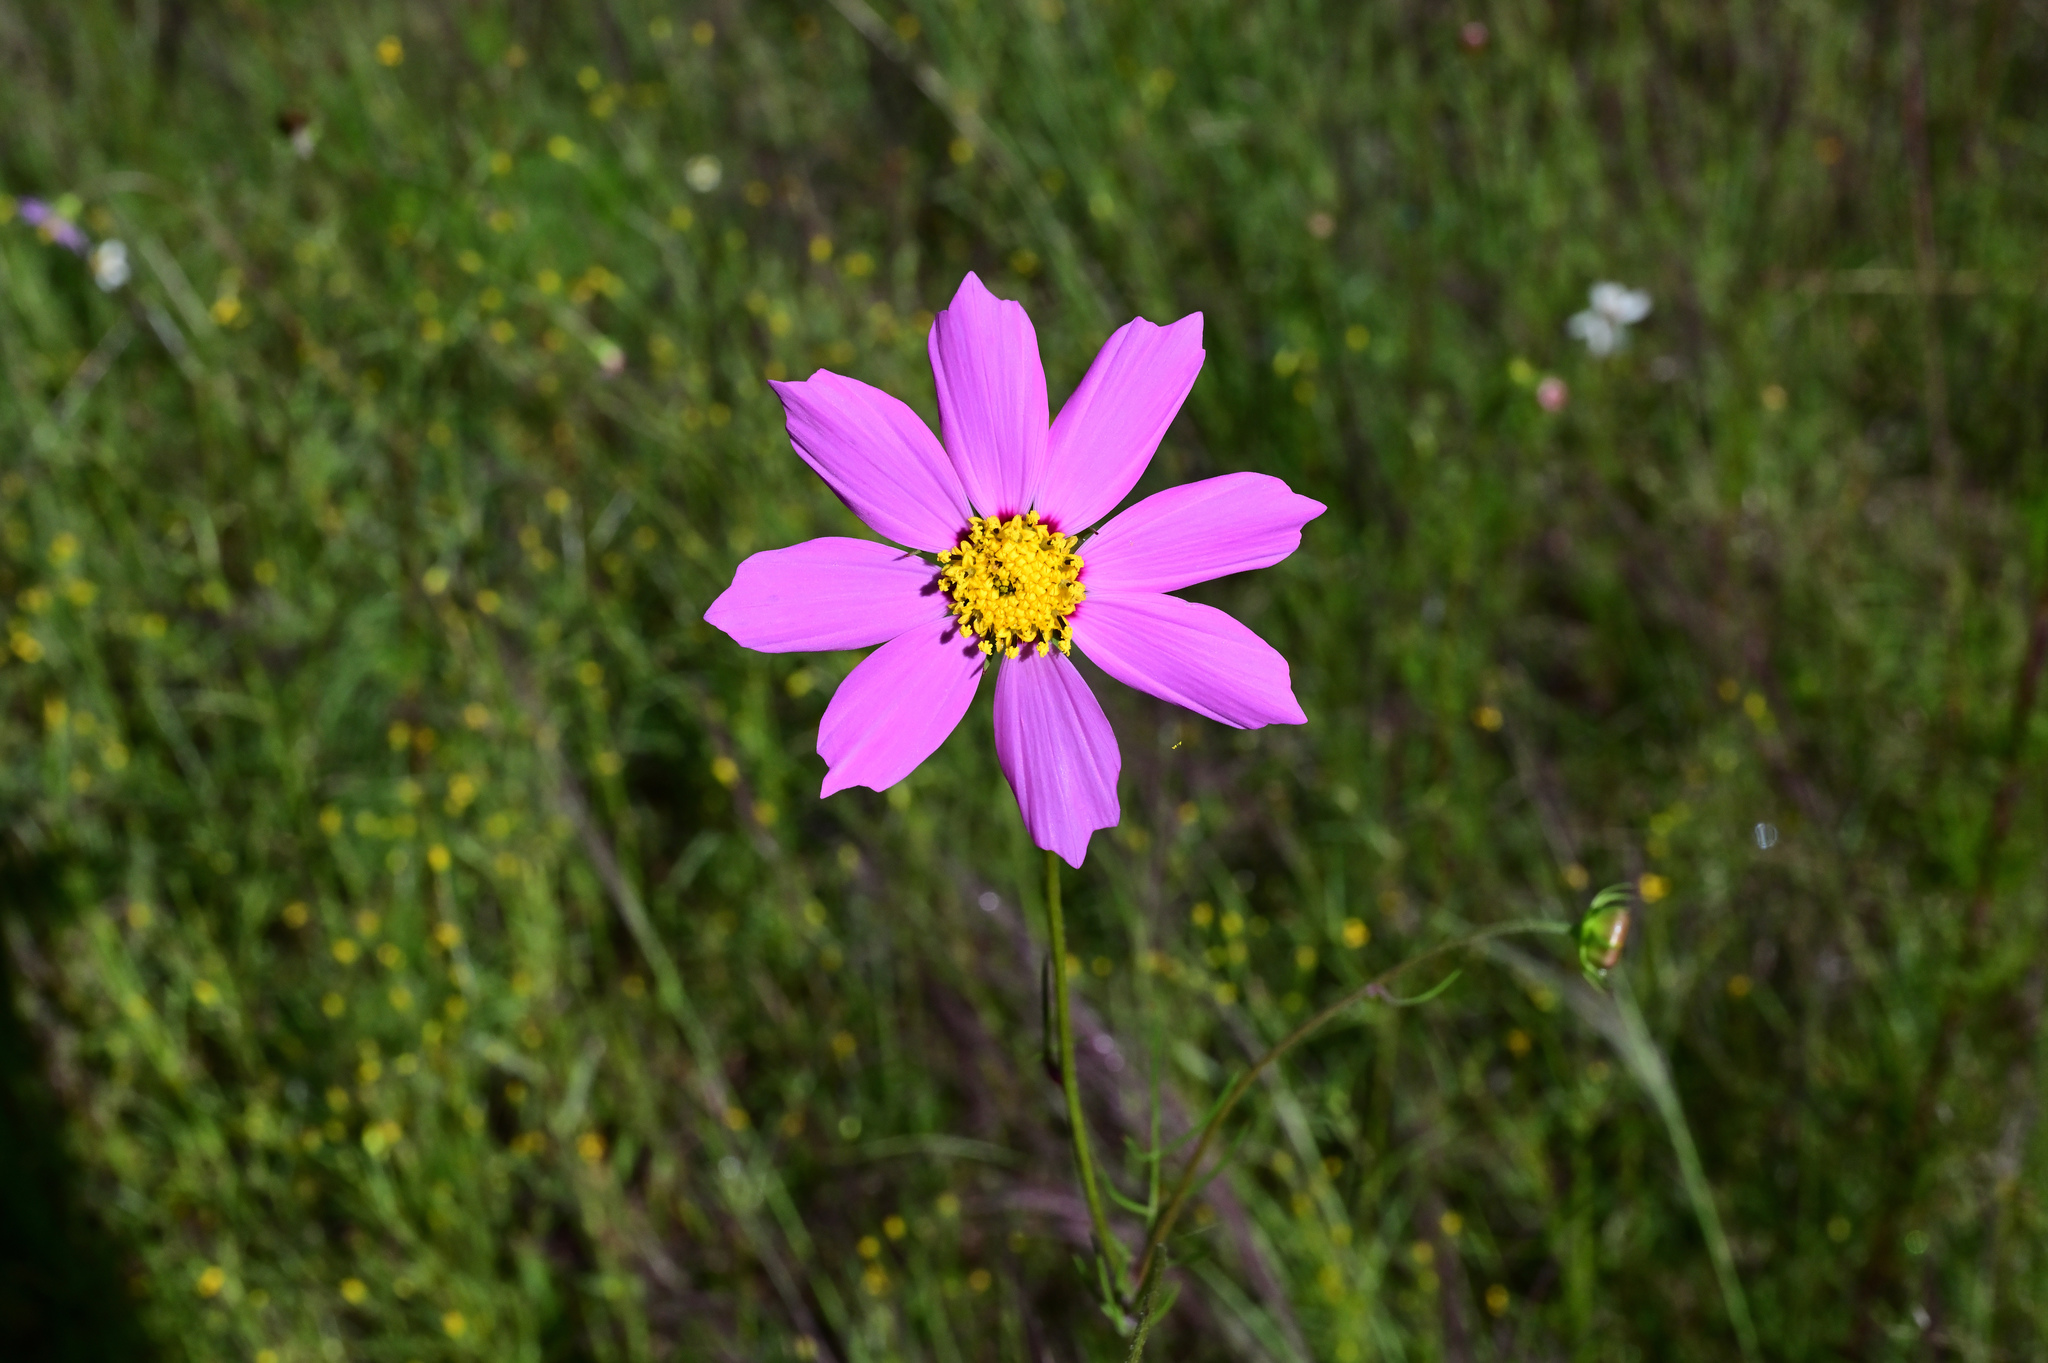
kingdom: Plantae
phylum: Tracheophyta
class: Magnoliopsida
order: Asterales
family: Asteraceae
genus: Cosmos
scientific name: Cosmos bipinnatus
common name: Garden cosmos
